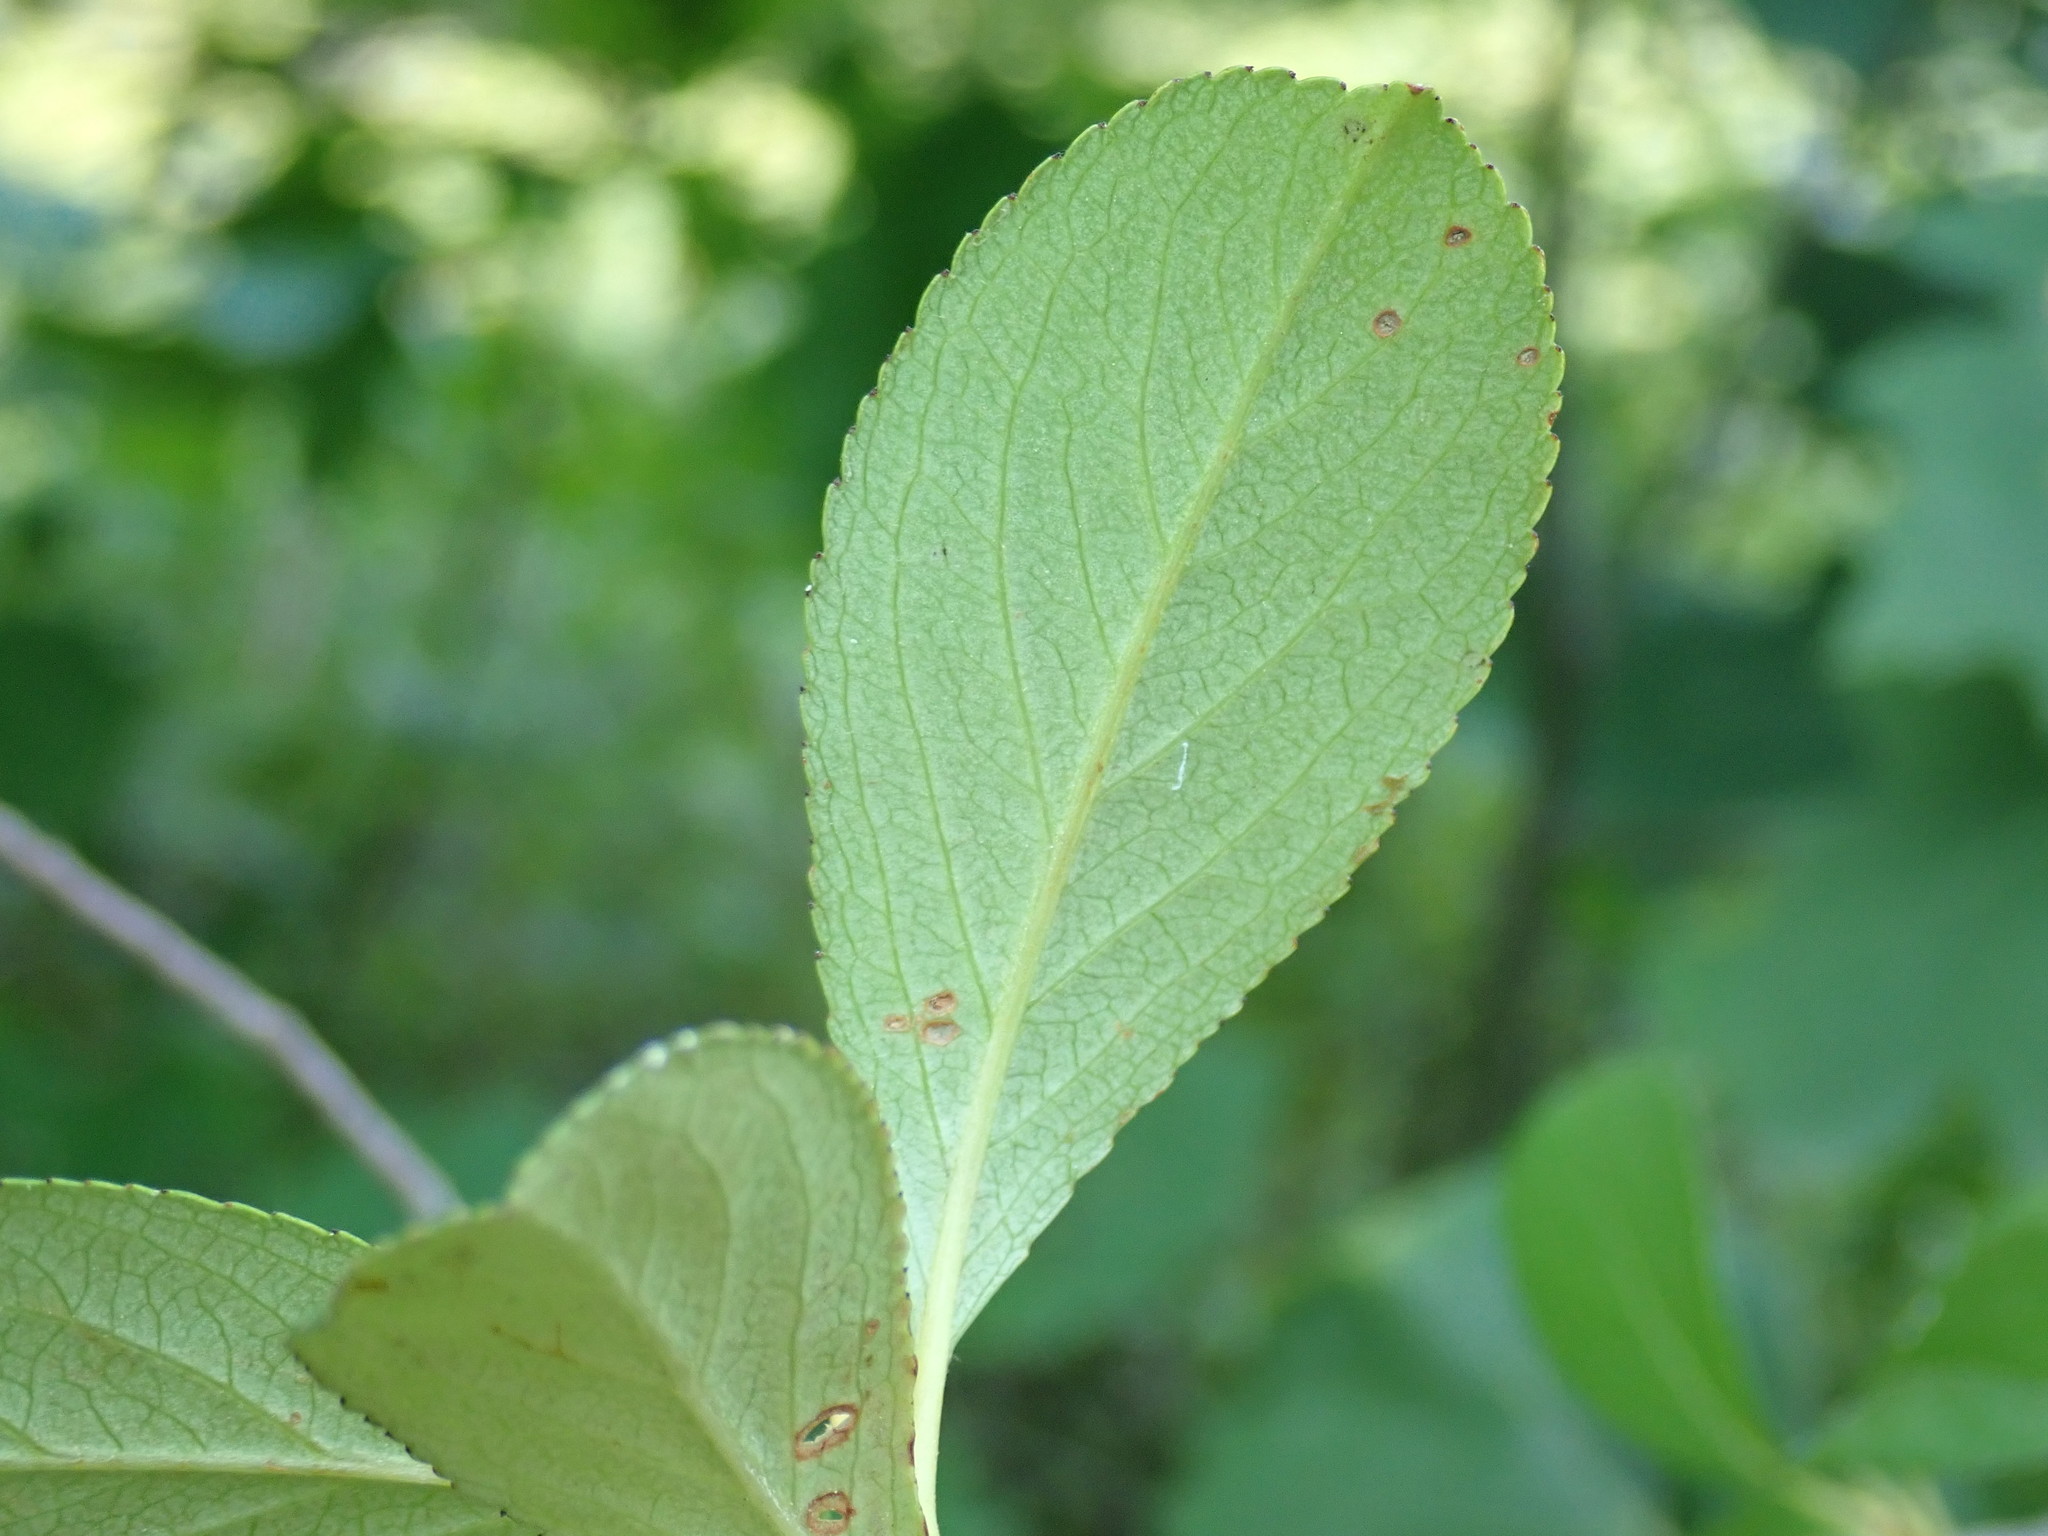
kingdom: Plantae
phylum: Tracheophyta
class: Magnoliopsida
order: Rosales
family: Rosaceae
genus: Aronia
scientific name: Aronia melanocarpa
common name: Black chokeberry
